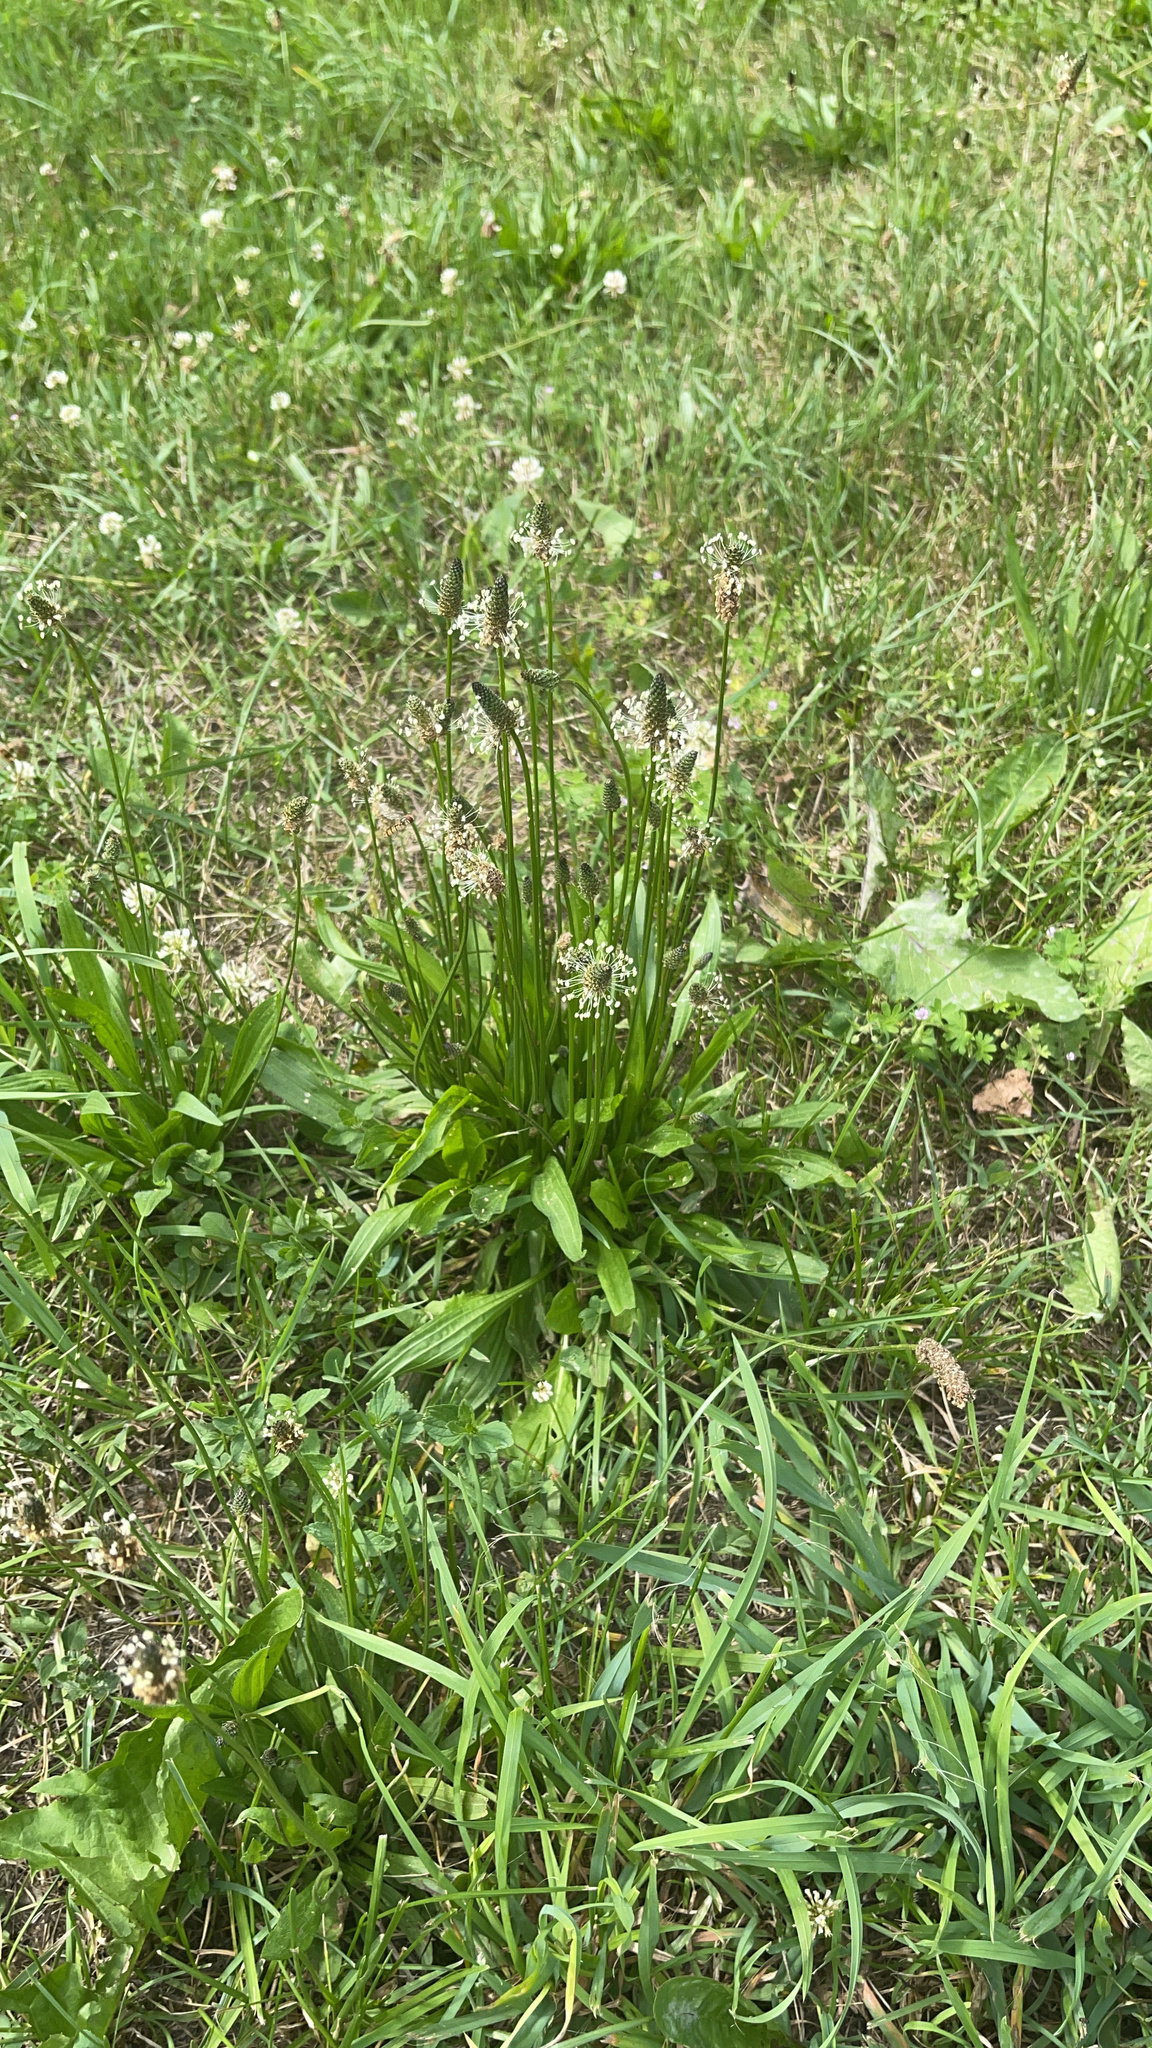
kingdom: Plantae
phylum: Tracheophyta
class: Magnoliopsida
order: Lamiales
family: Plantaginaceae
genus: Plantago
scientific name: Plantago lanceolata
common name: Ribwort plantain
